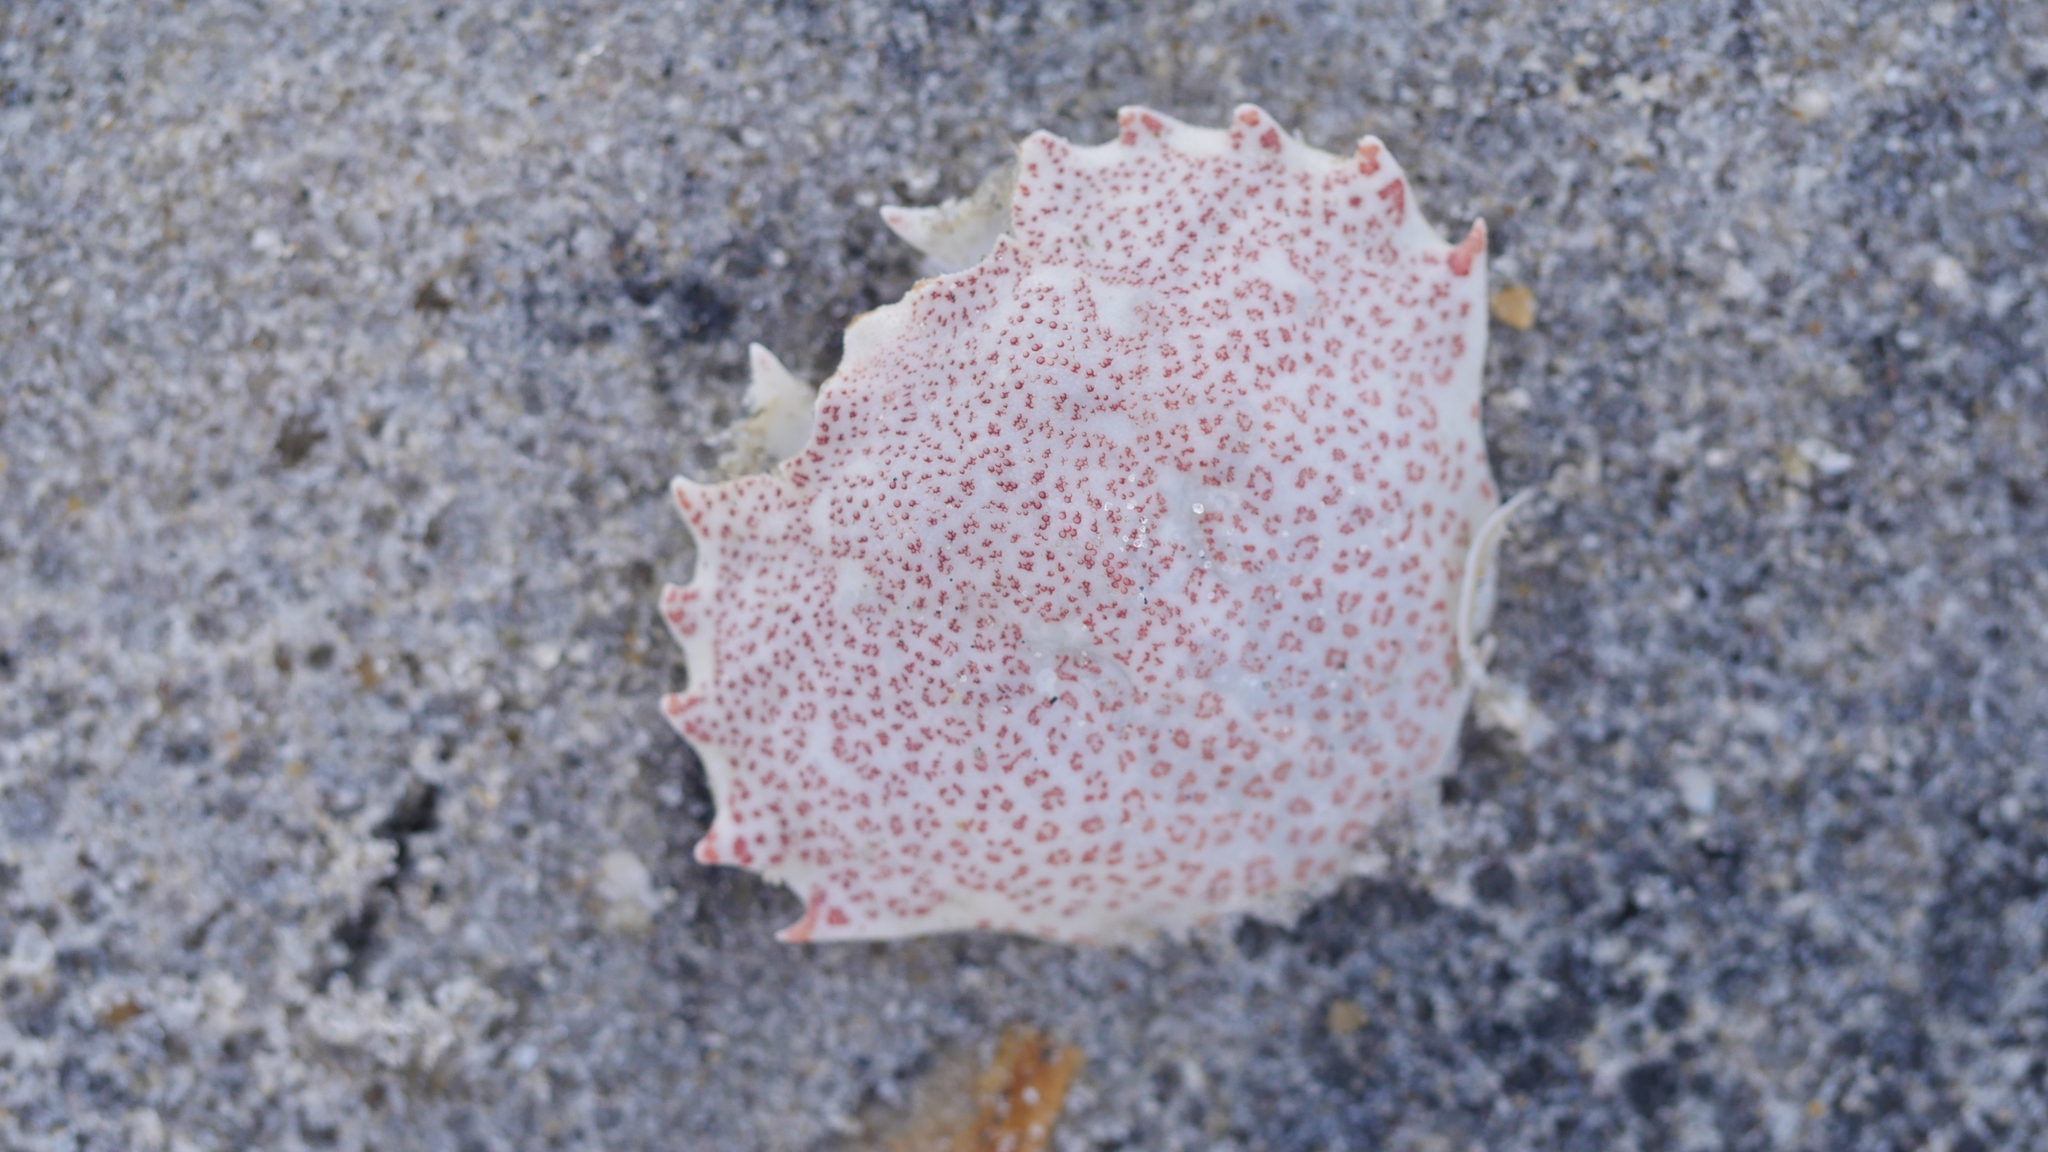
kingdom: Animalia
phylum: Arthropoda
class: Malacostraca
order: Decapoda
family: Ovalipidae
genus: Ovalipes
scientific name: Ovalipes ocellatus
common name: Lady crab
